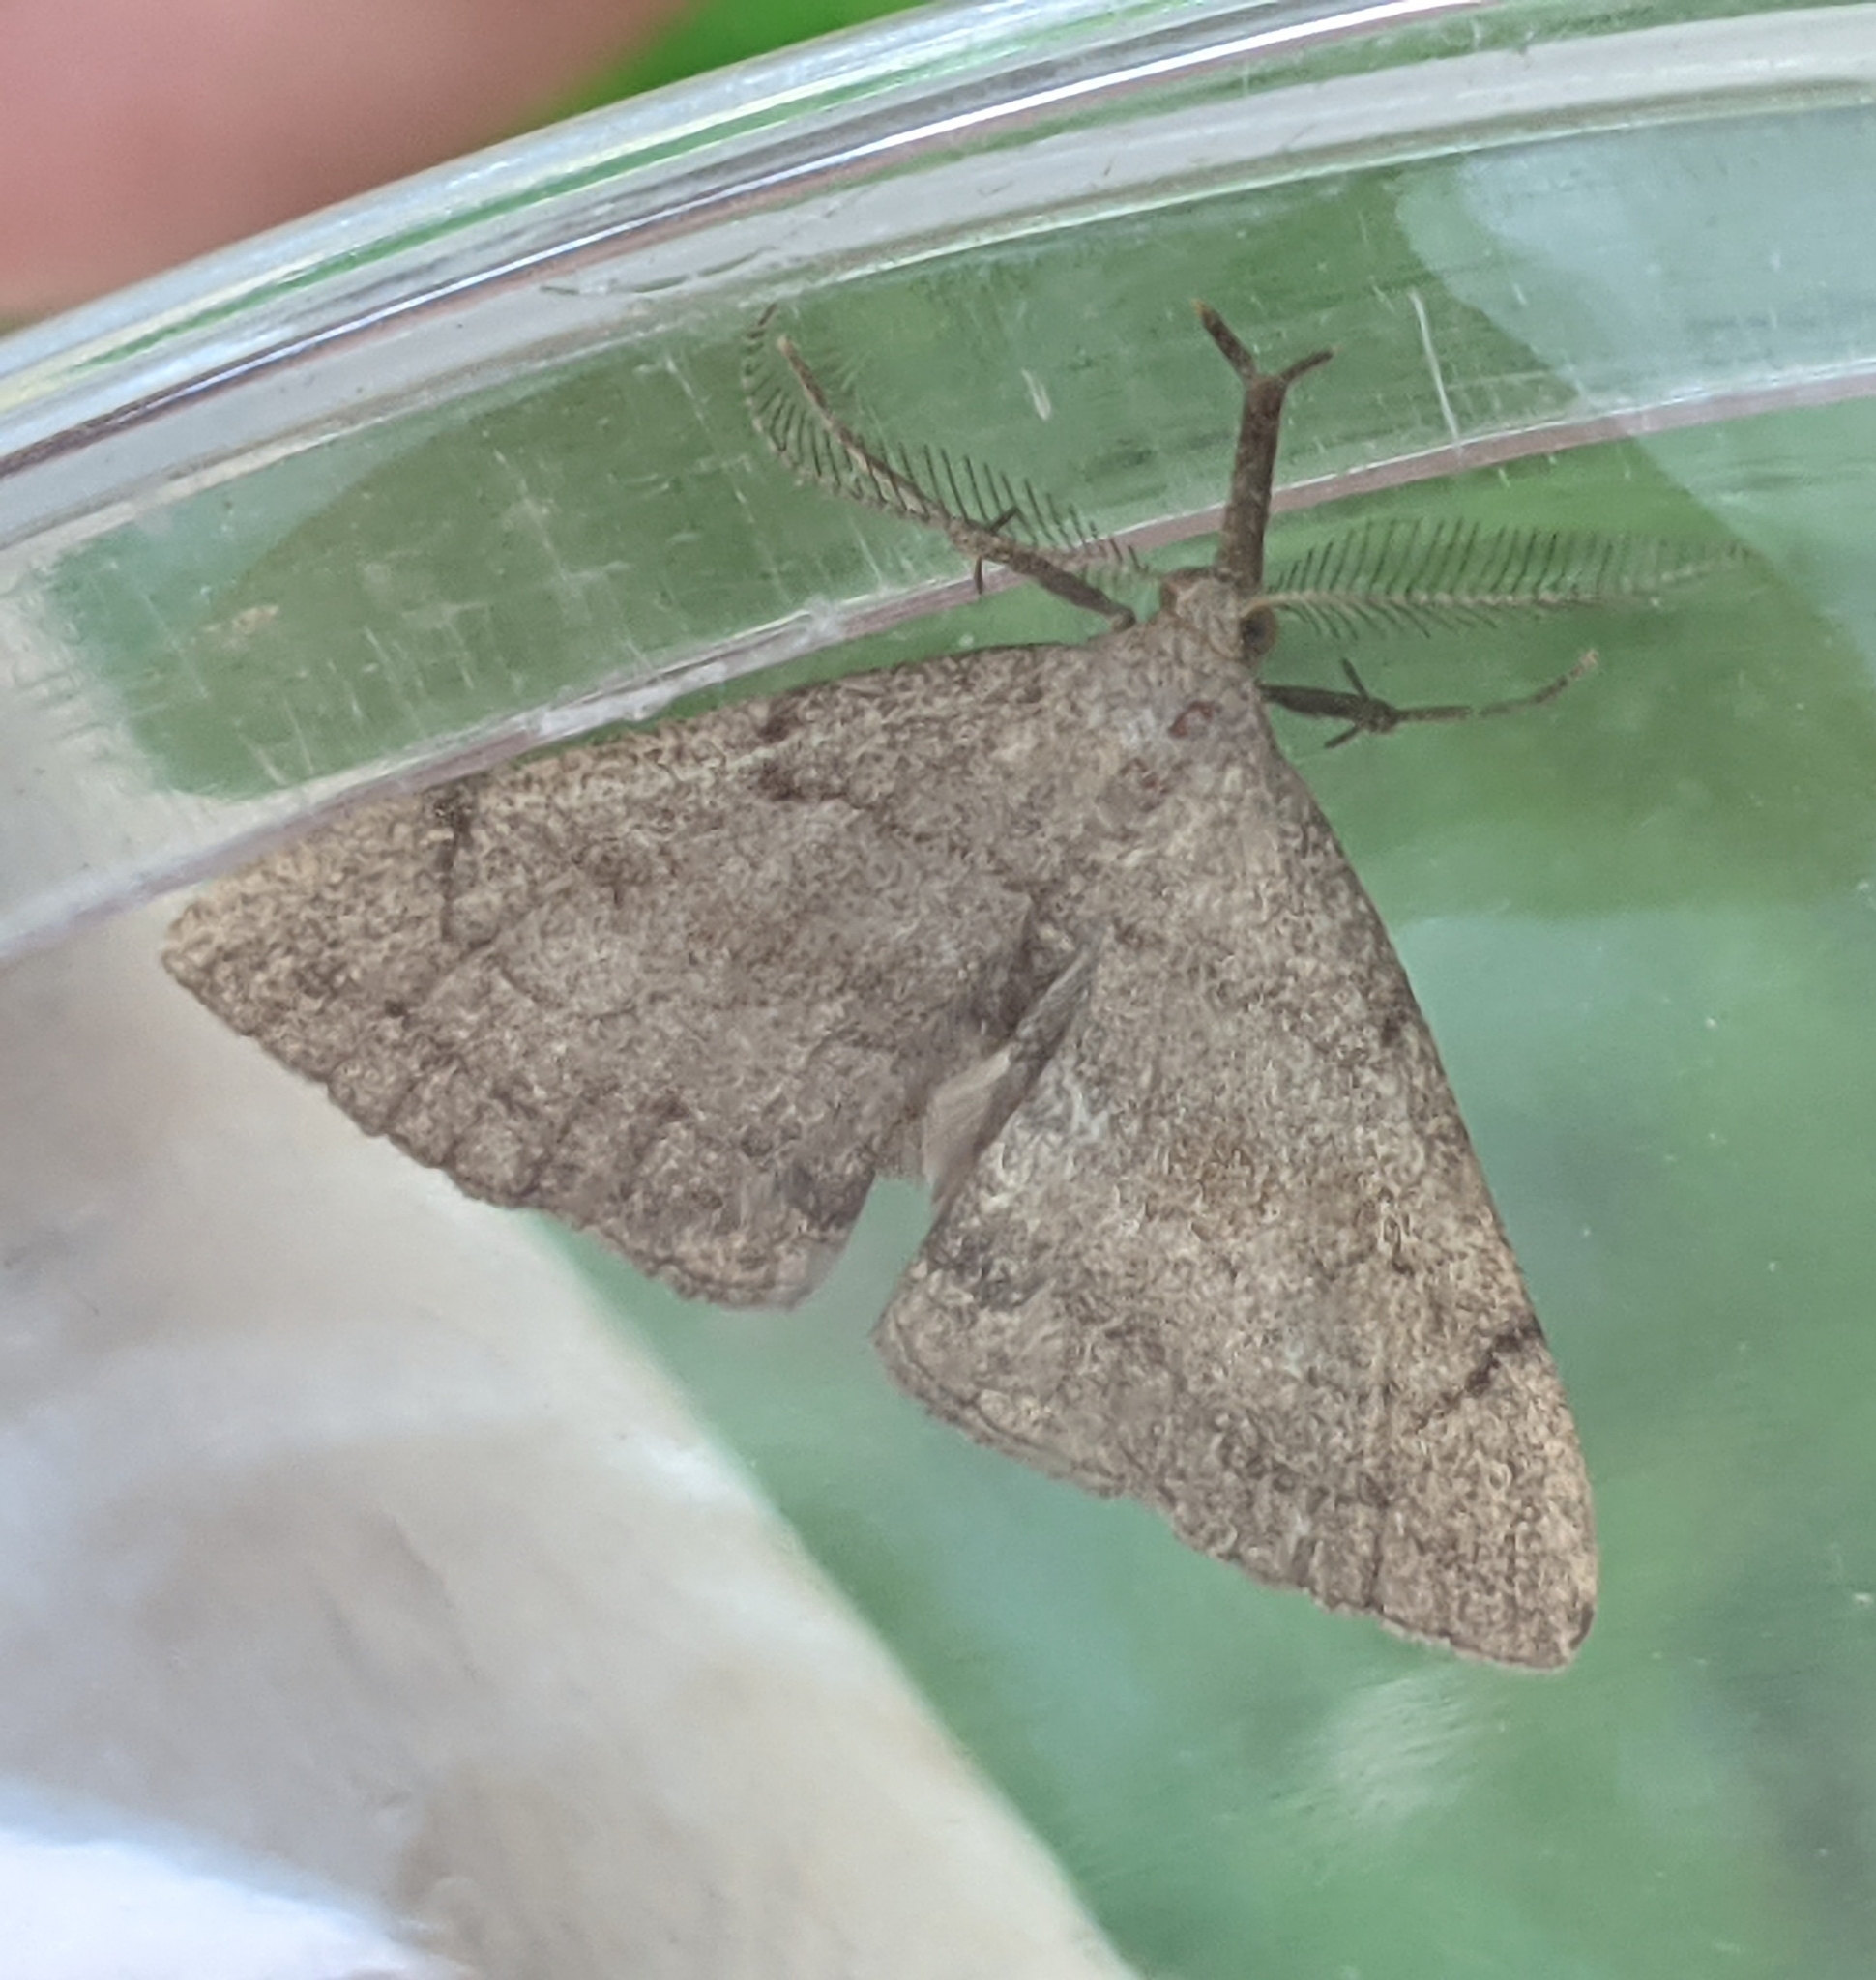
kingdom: Animalia
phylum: Arthropoda
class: Insecta
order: Lepidoptera
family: Erebidae
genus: Phalaenostola
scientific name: Phalaenostola metonalis
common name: Pale phalaenostola moth
